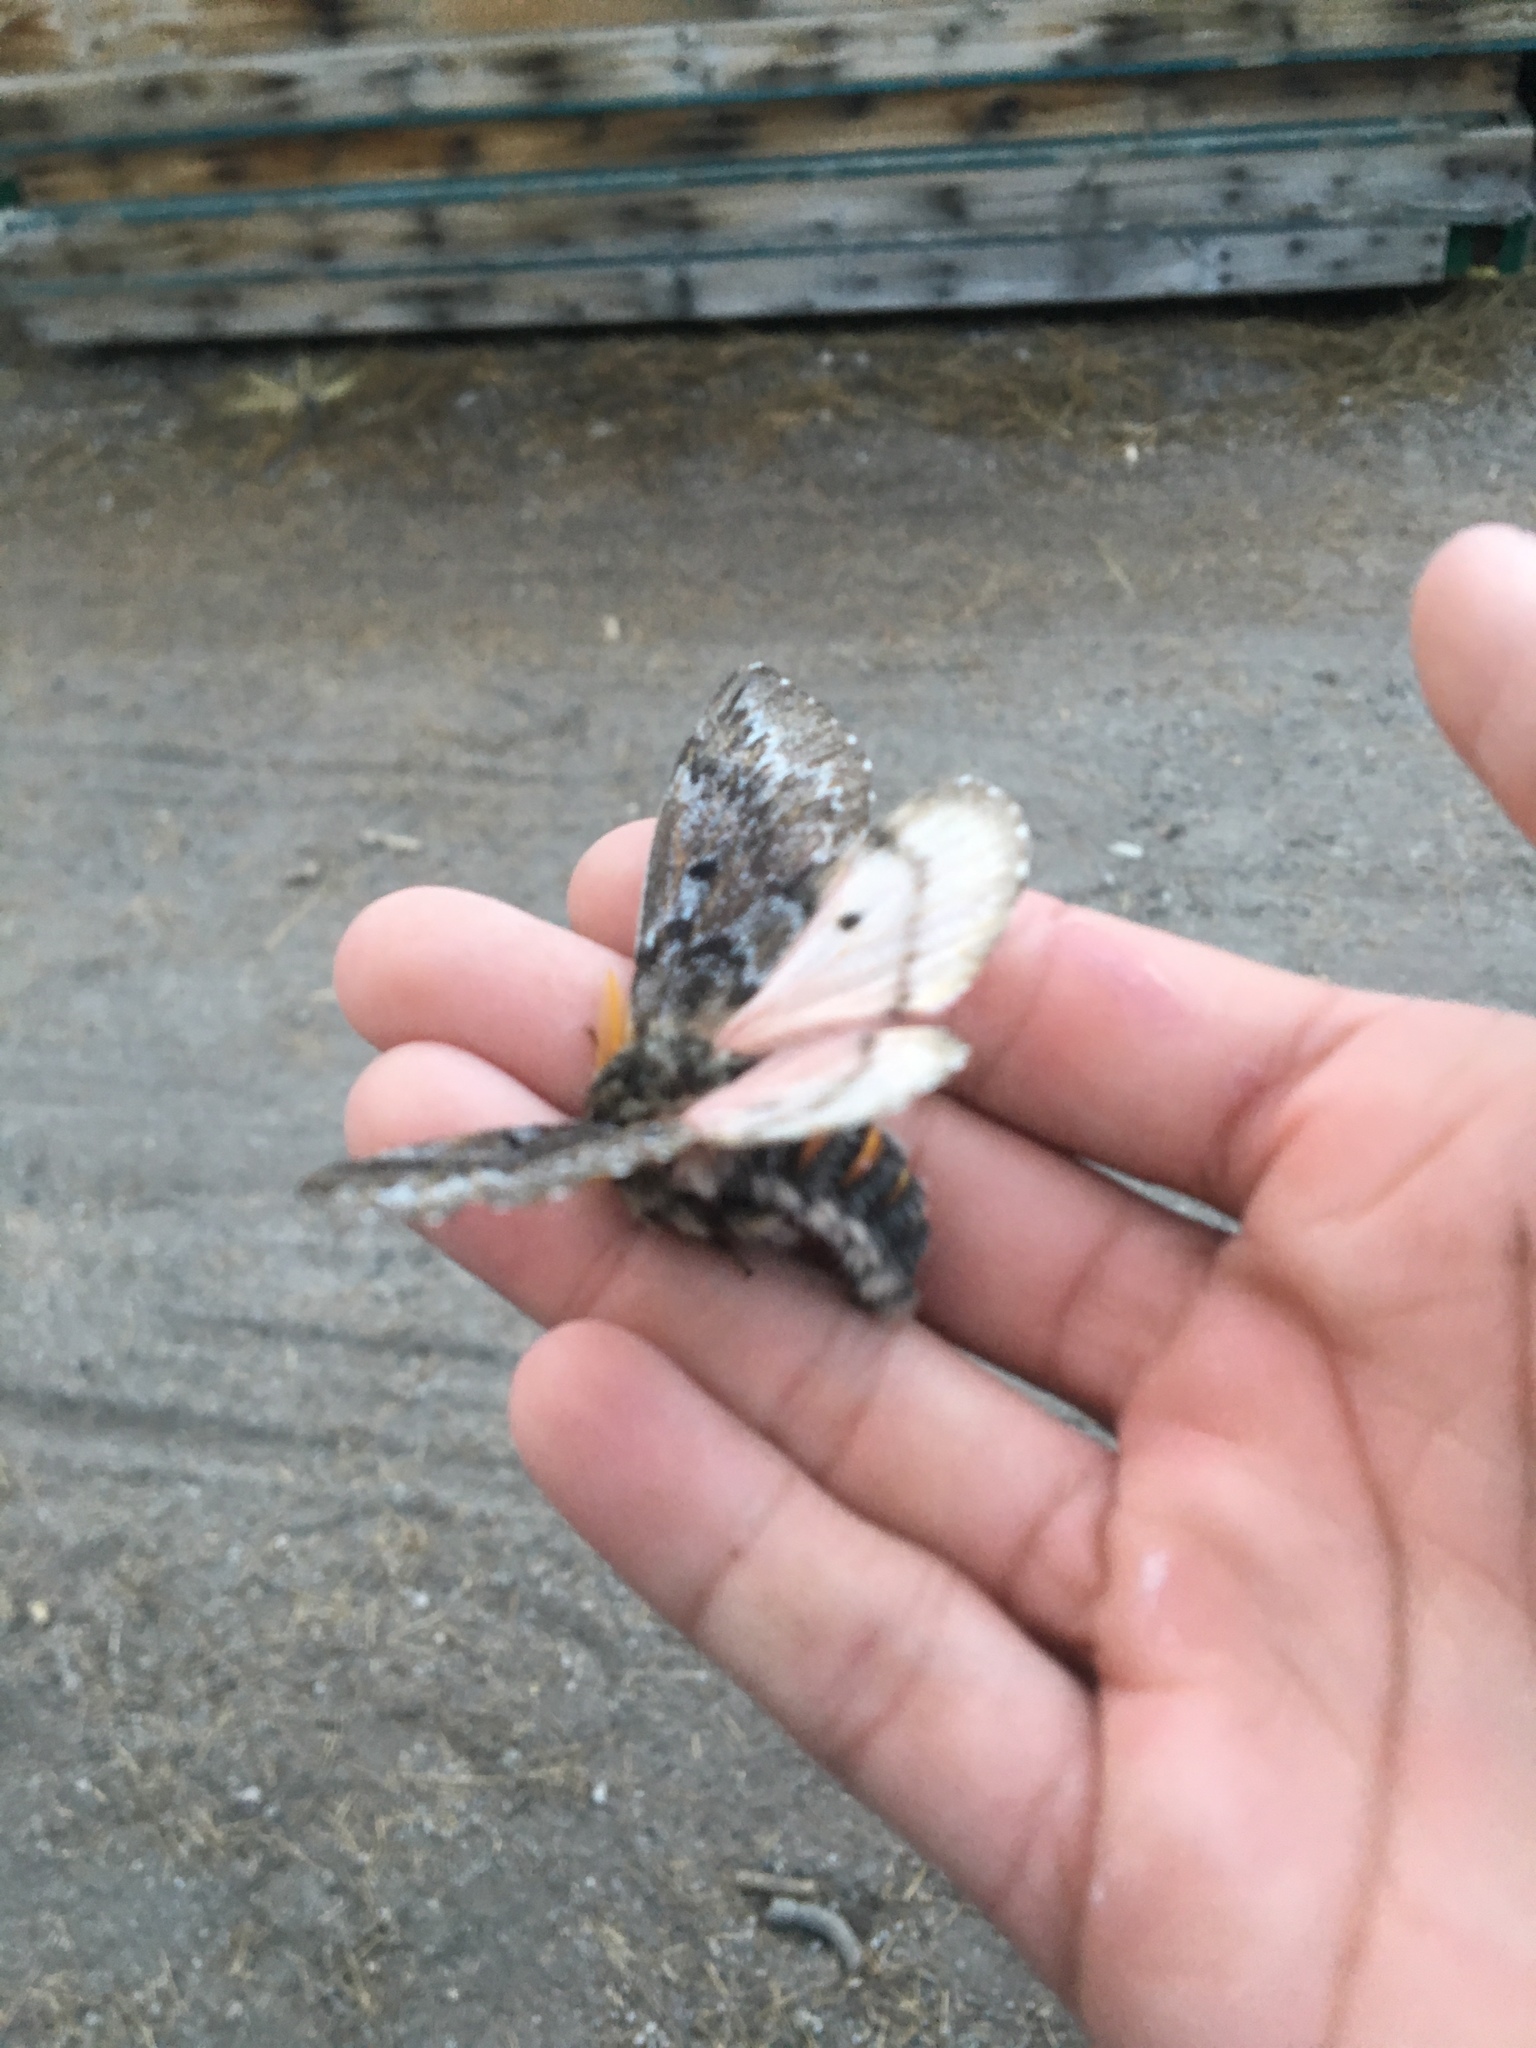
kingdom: Animalia
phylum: Arthropoda
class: Insecta
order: Lepidoptera
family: Saturniidae
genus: Coloradia
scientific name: Coloradia pandora
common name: Pandora pinemoth
